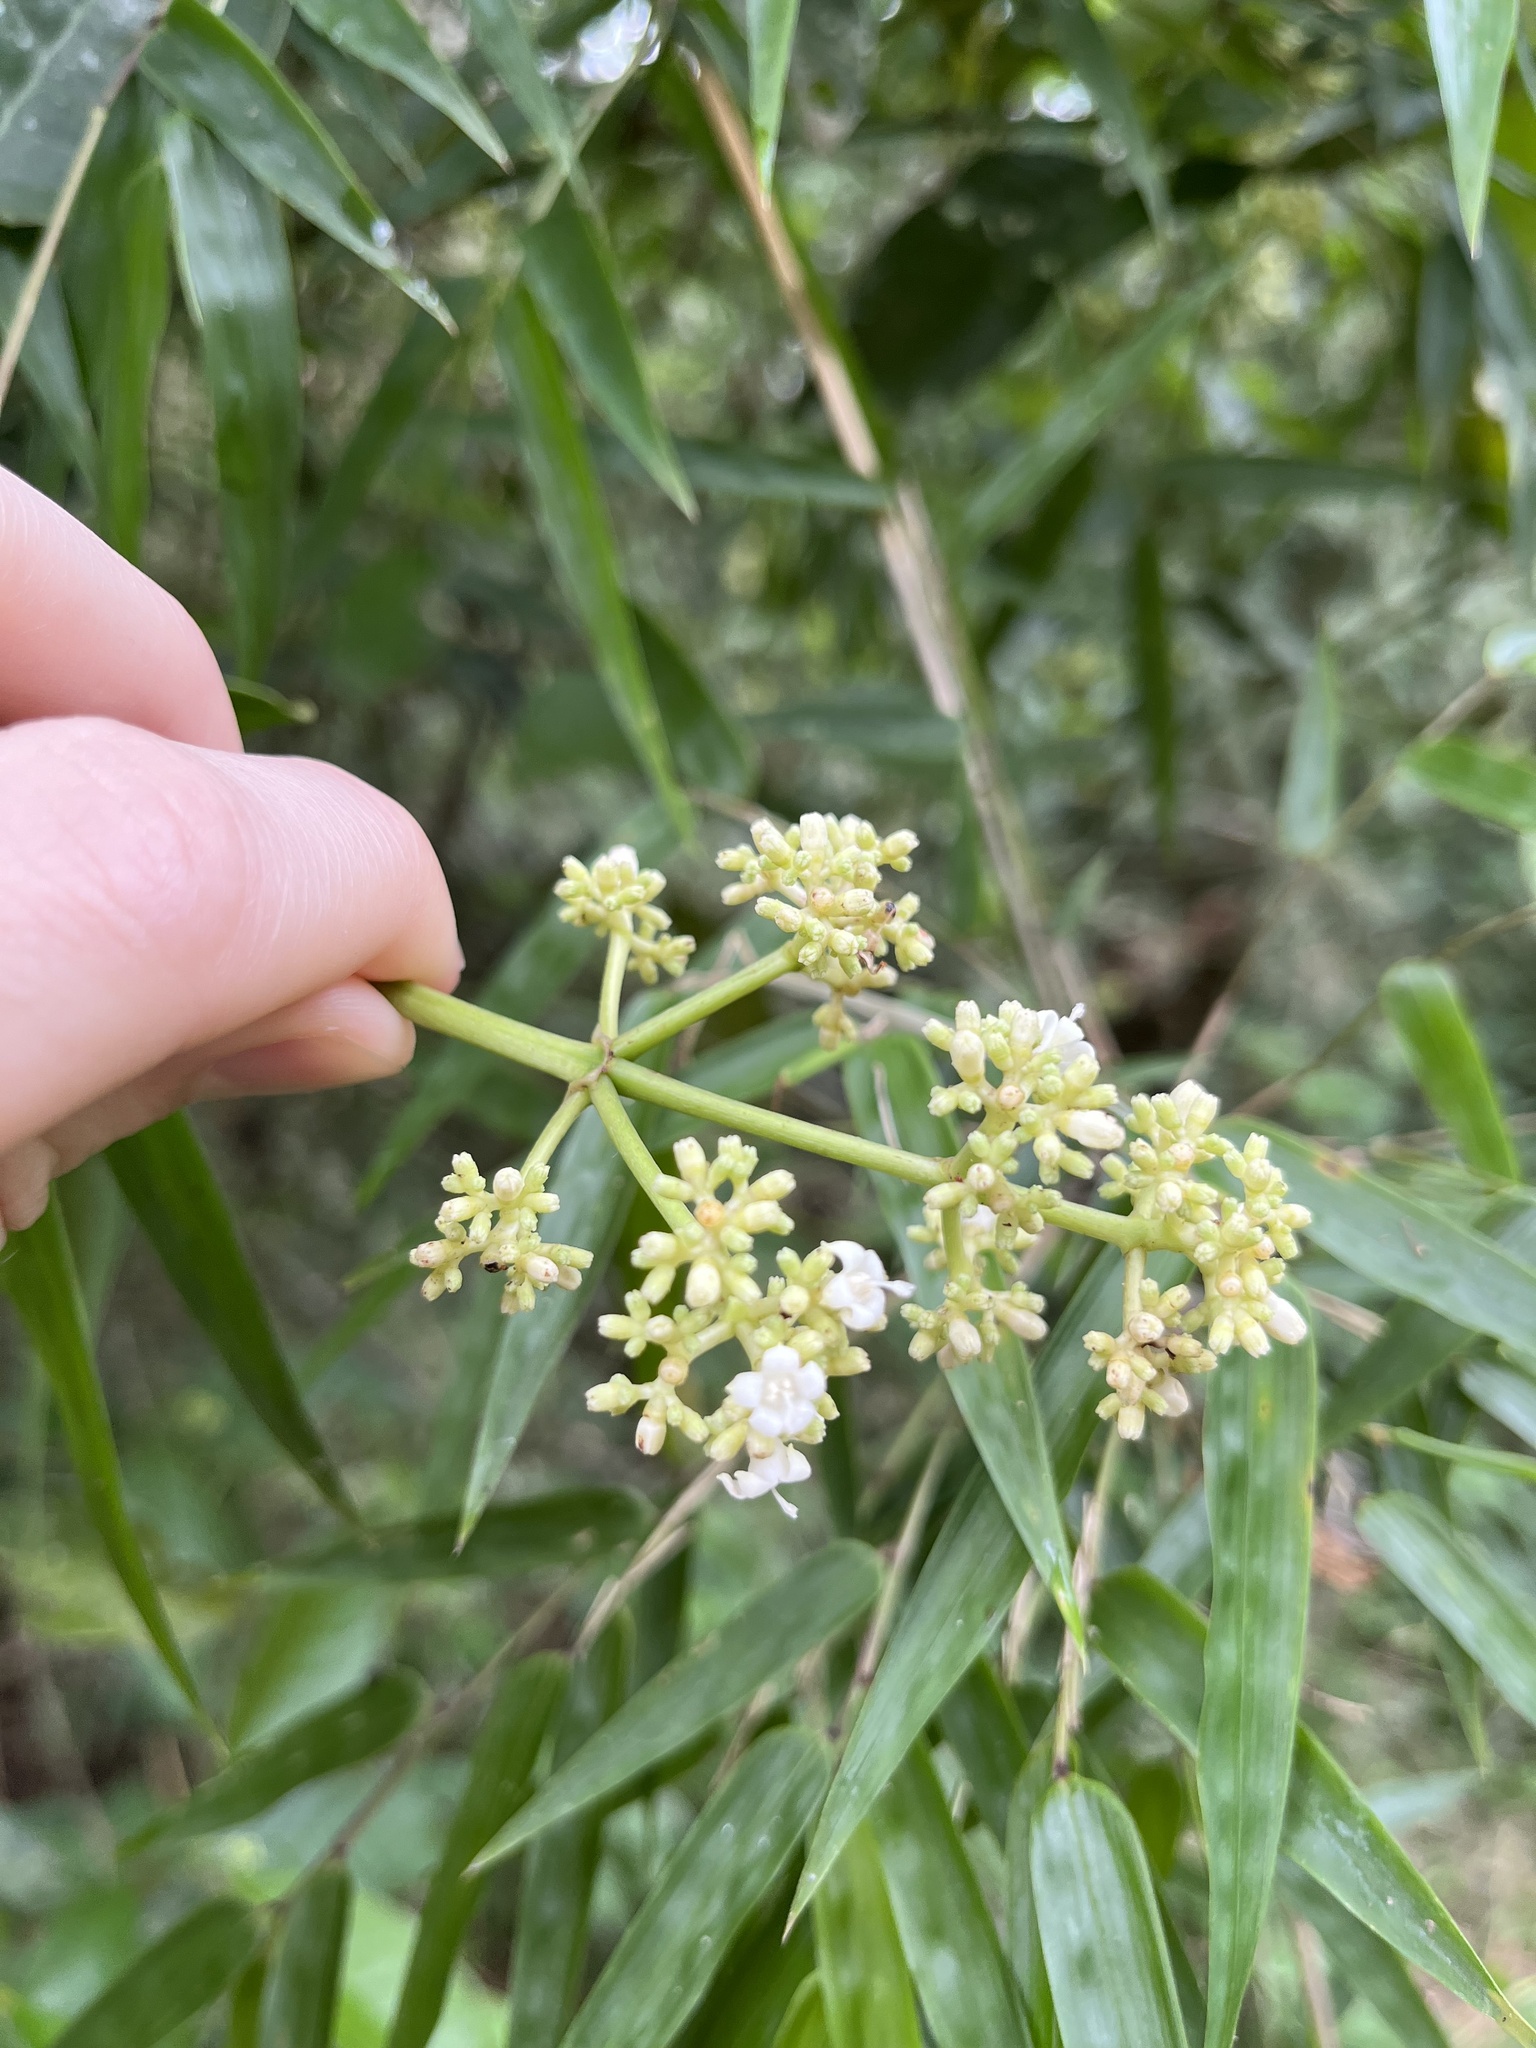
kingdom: Plantae
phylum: Tracheophyta
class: Magnoliopsida
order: Gentianales
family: Rubiaceae
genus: Psychotria
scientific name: Psychotria carthagenensis
